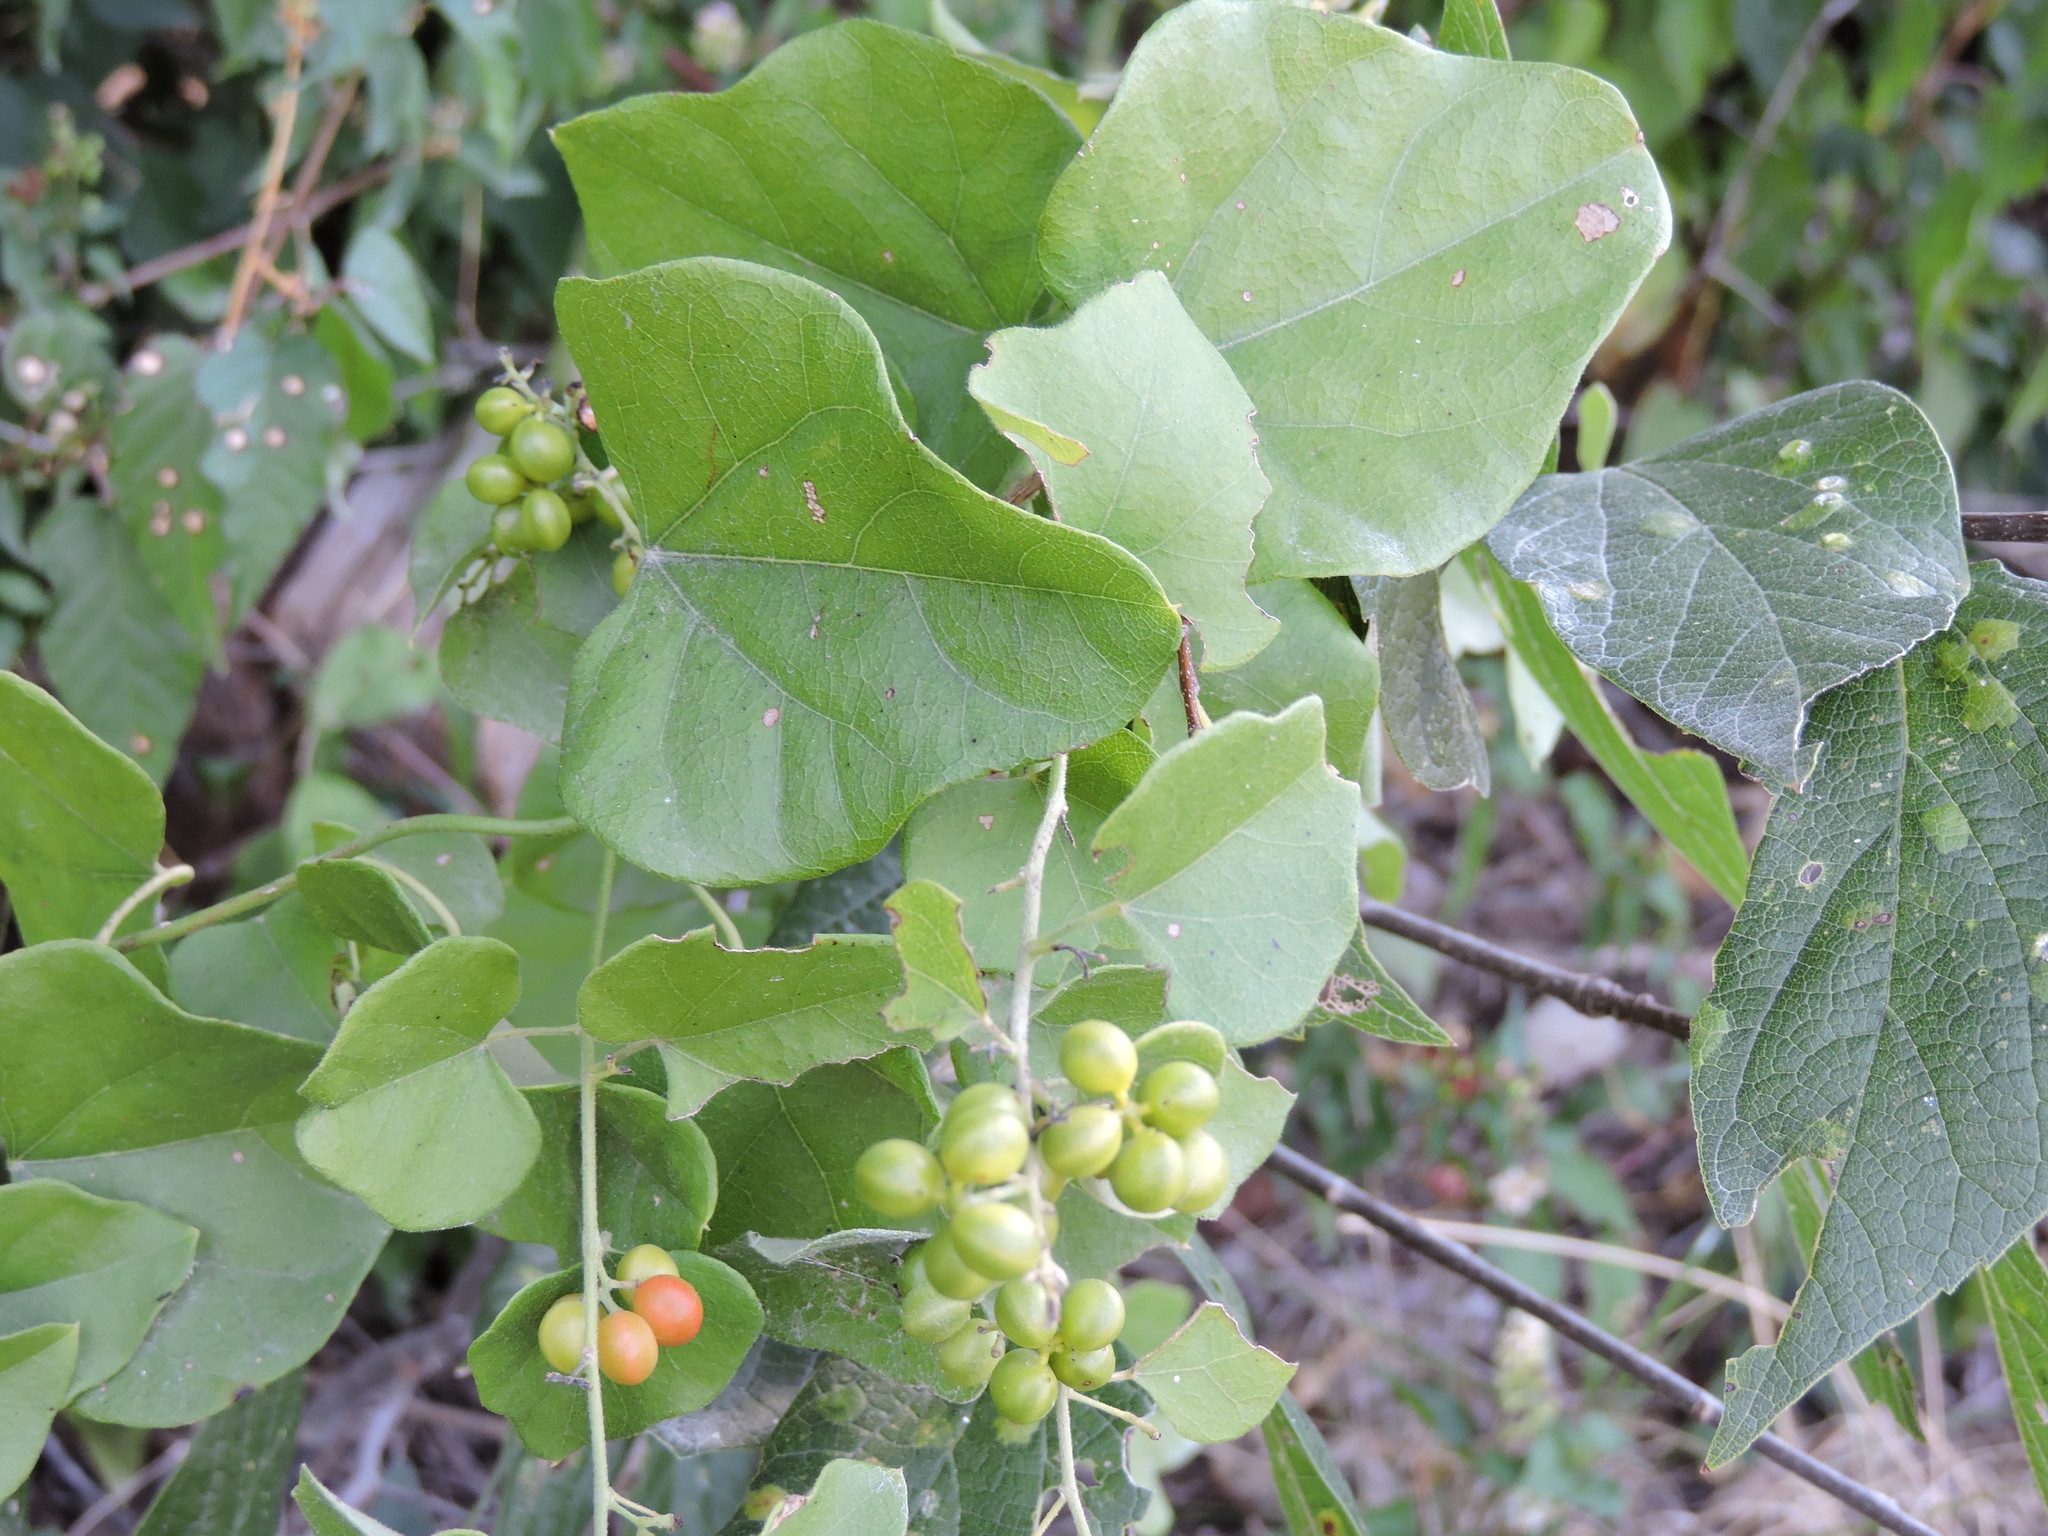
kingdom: Plantae
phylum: Tracheophyta
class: Magnoliopsida
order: Ranunculales
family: Menispermaceae
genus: Cocculus
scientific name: Cocculus carolinus
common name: Carolina moonseed
